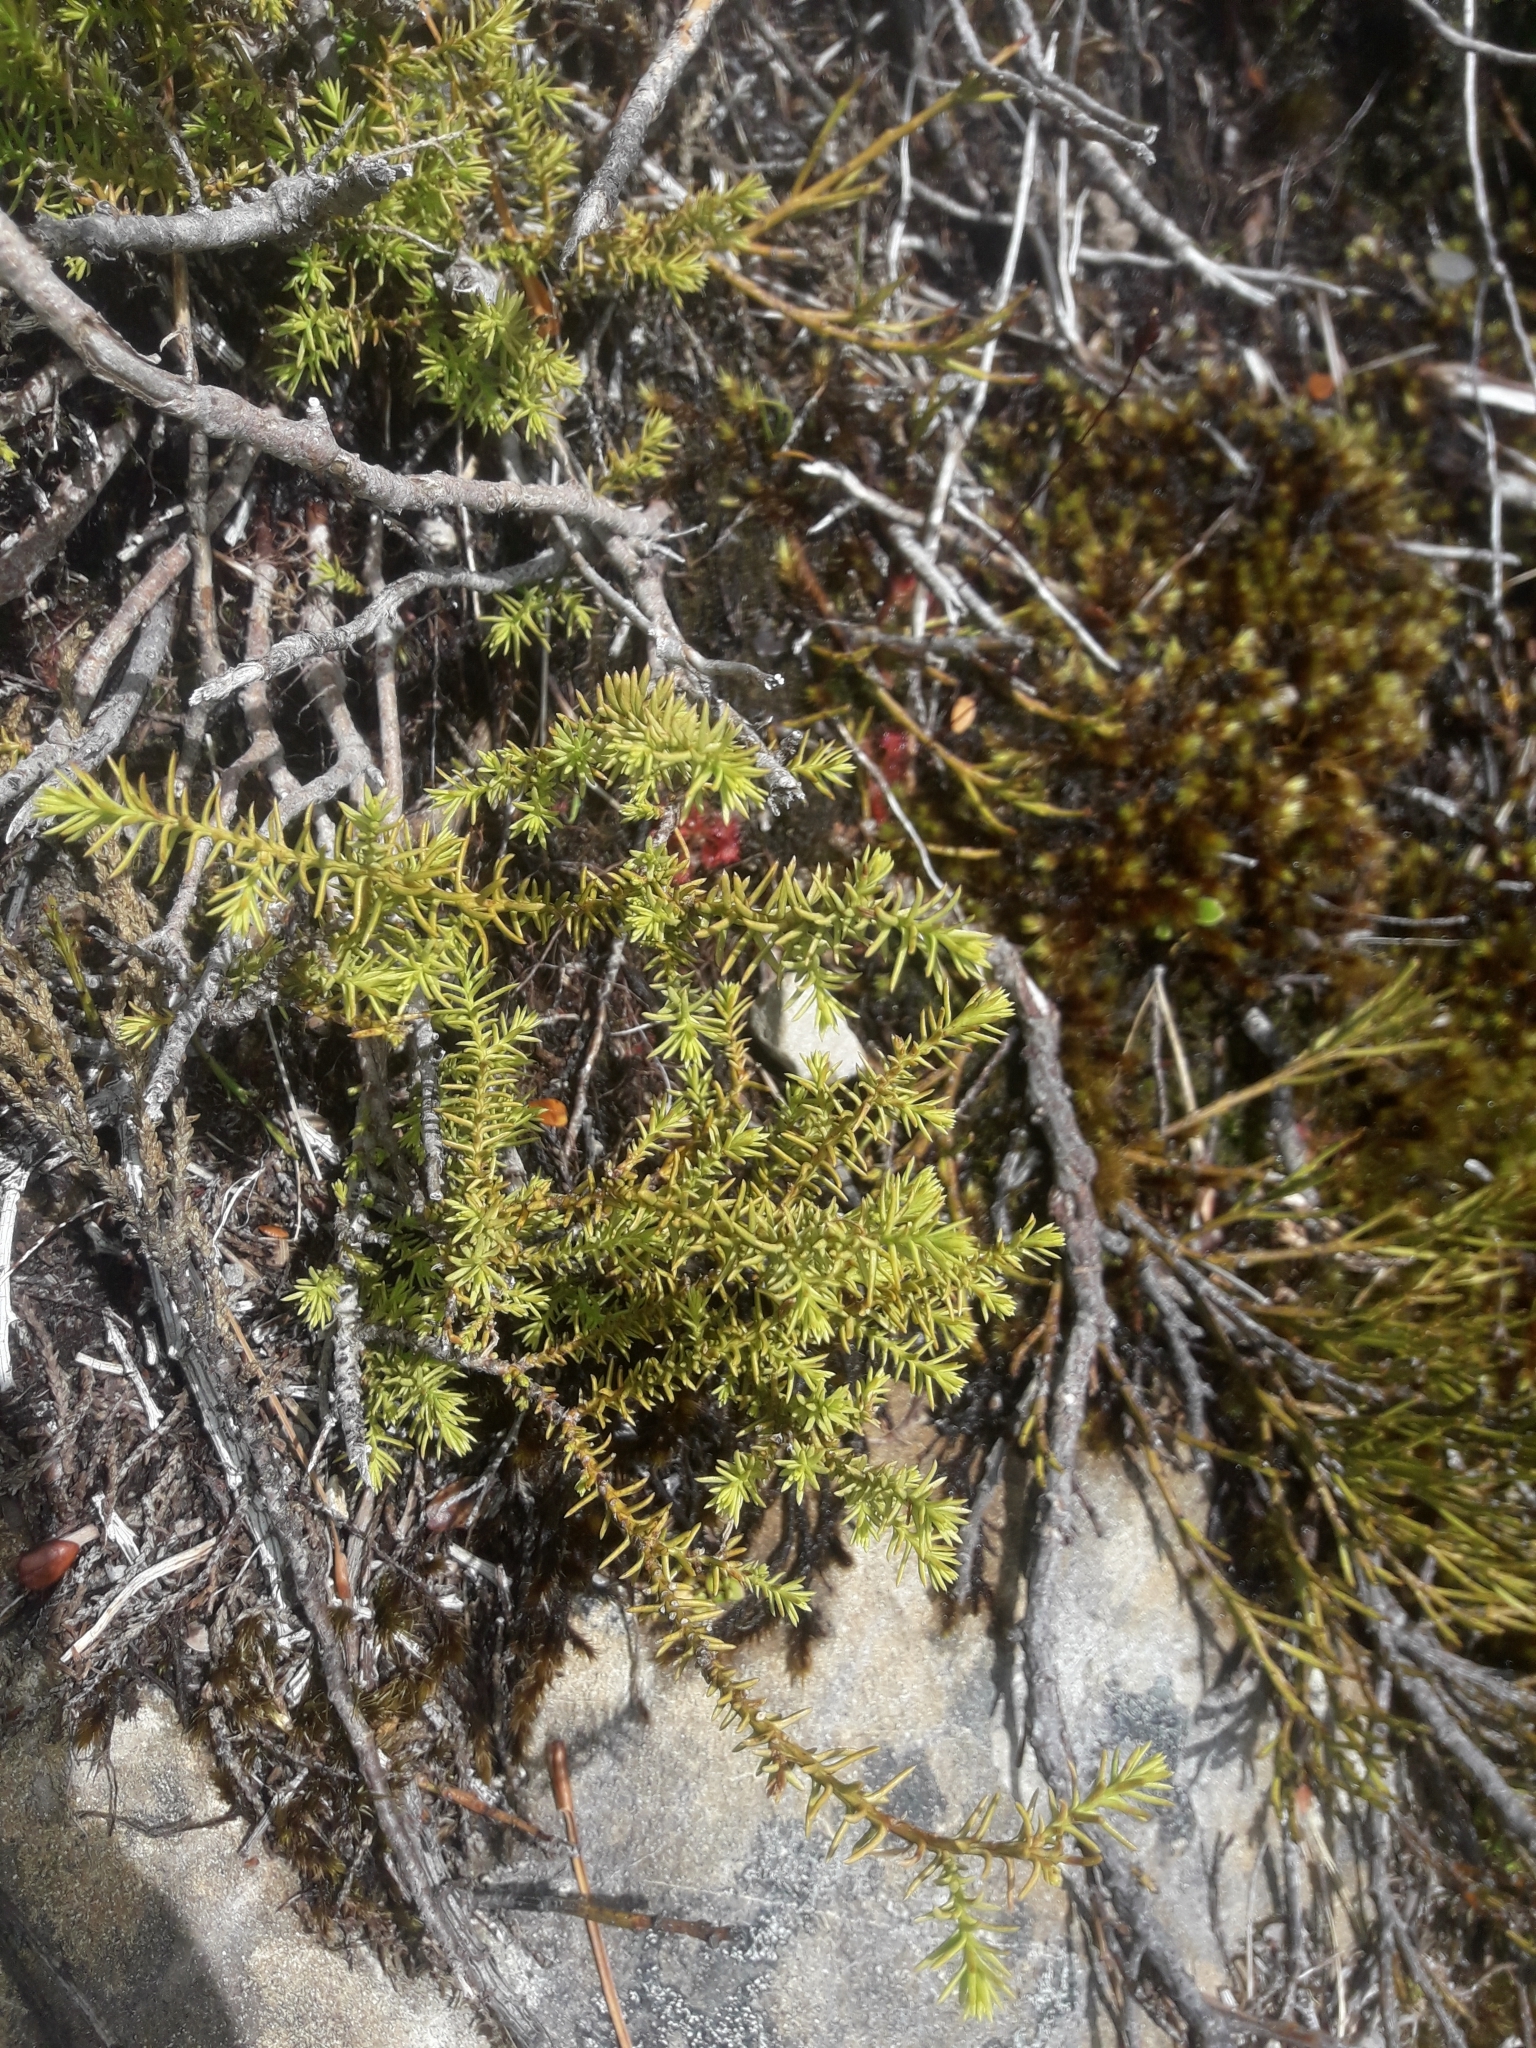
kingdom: Plantae
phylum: Tracheophyta
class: Pinopsida
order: Pinales
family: Podocarpaceae
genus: Lepidothamnus
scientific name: Lepidothamnus laxifolius
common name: Pygmy pine
